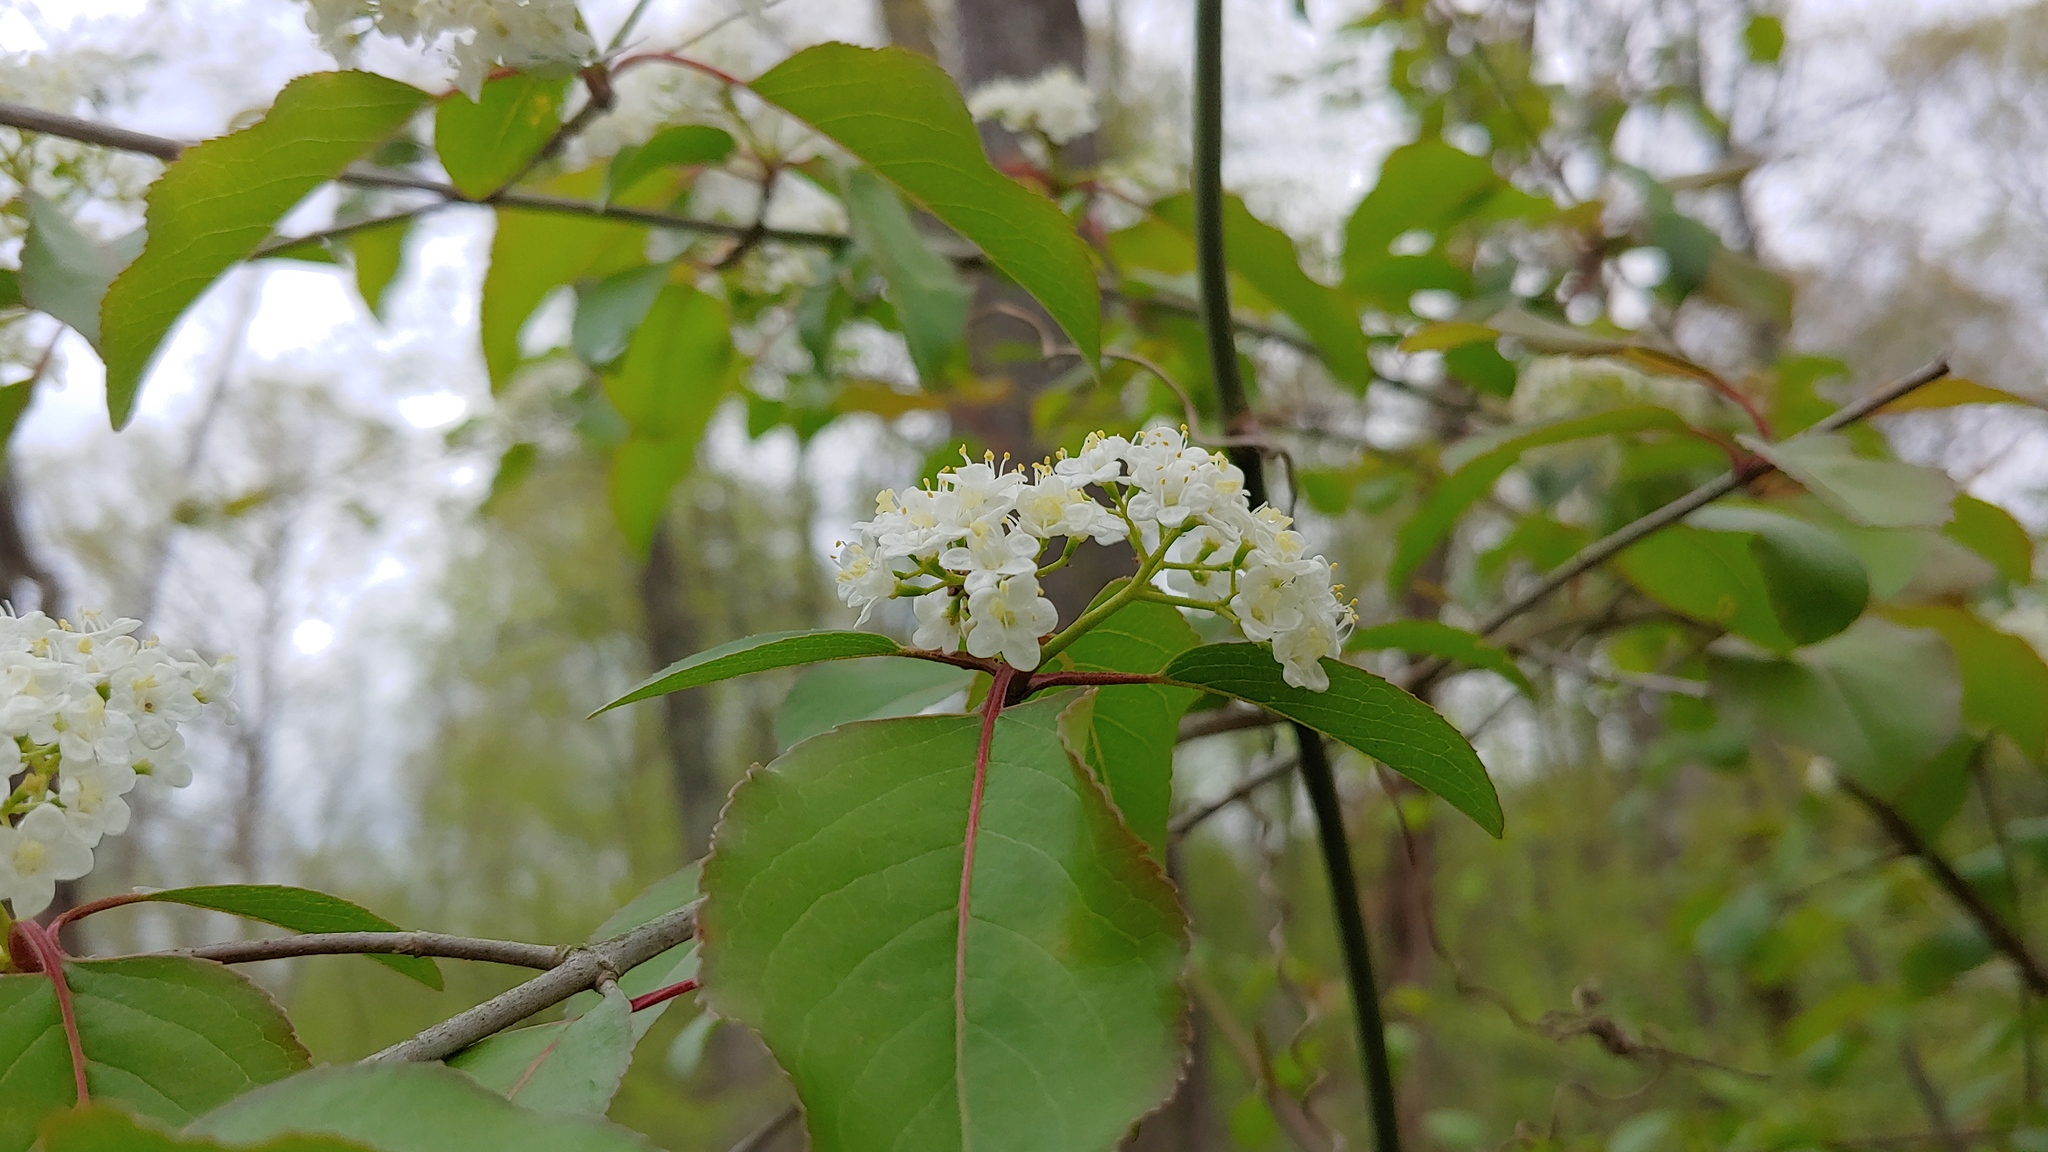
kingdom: Plantae
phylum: Tracheophyta
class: Magnoliopsida
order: Dipsacales
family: Viburnaceae
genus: Viburnum
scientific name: Viburnum prunifolium
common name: Black haw
